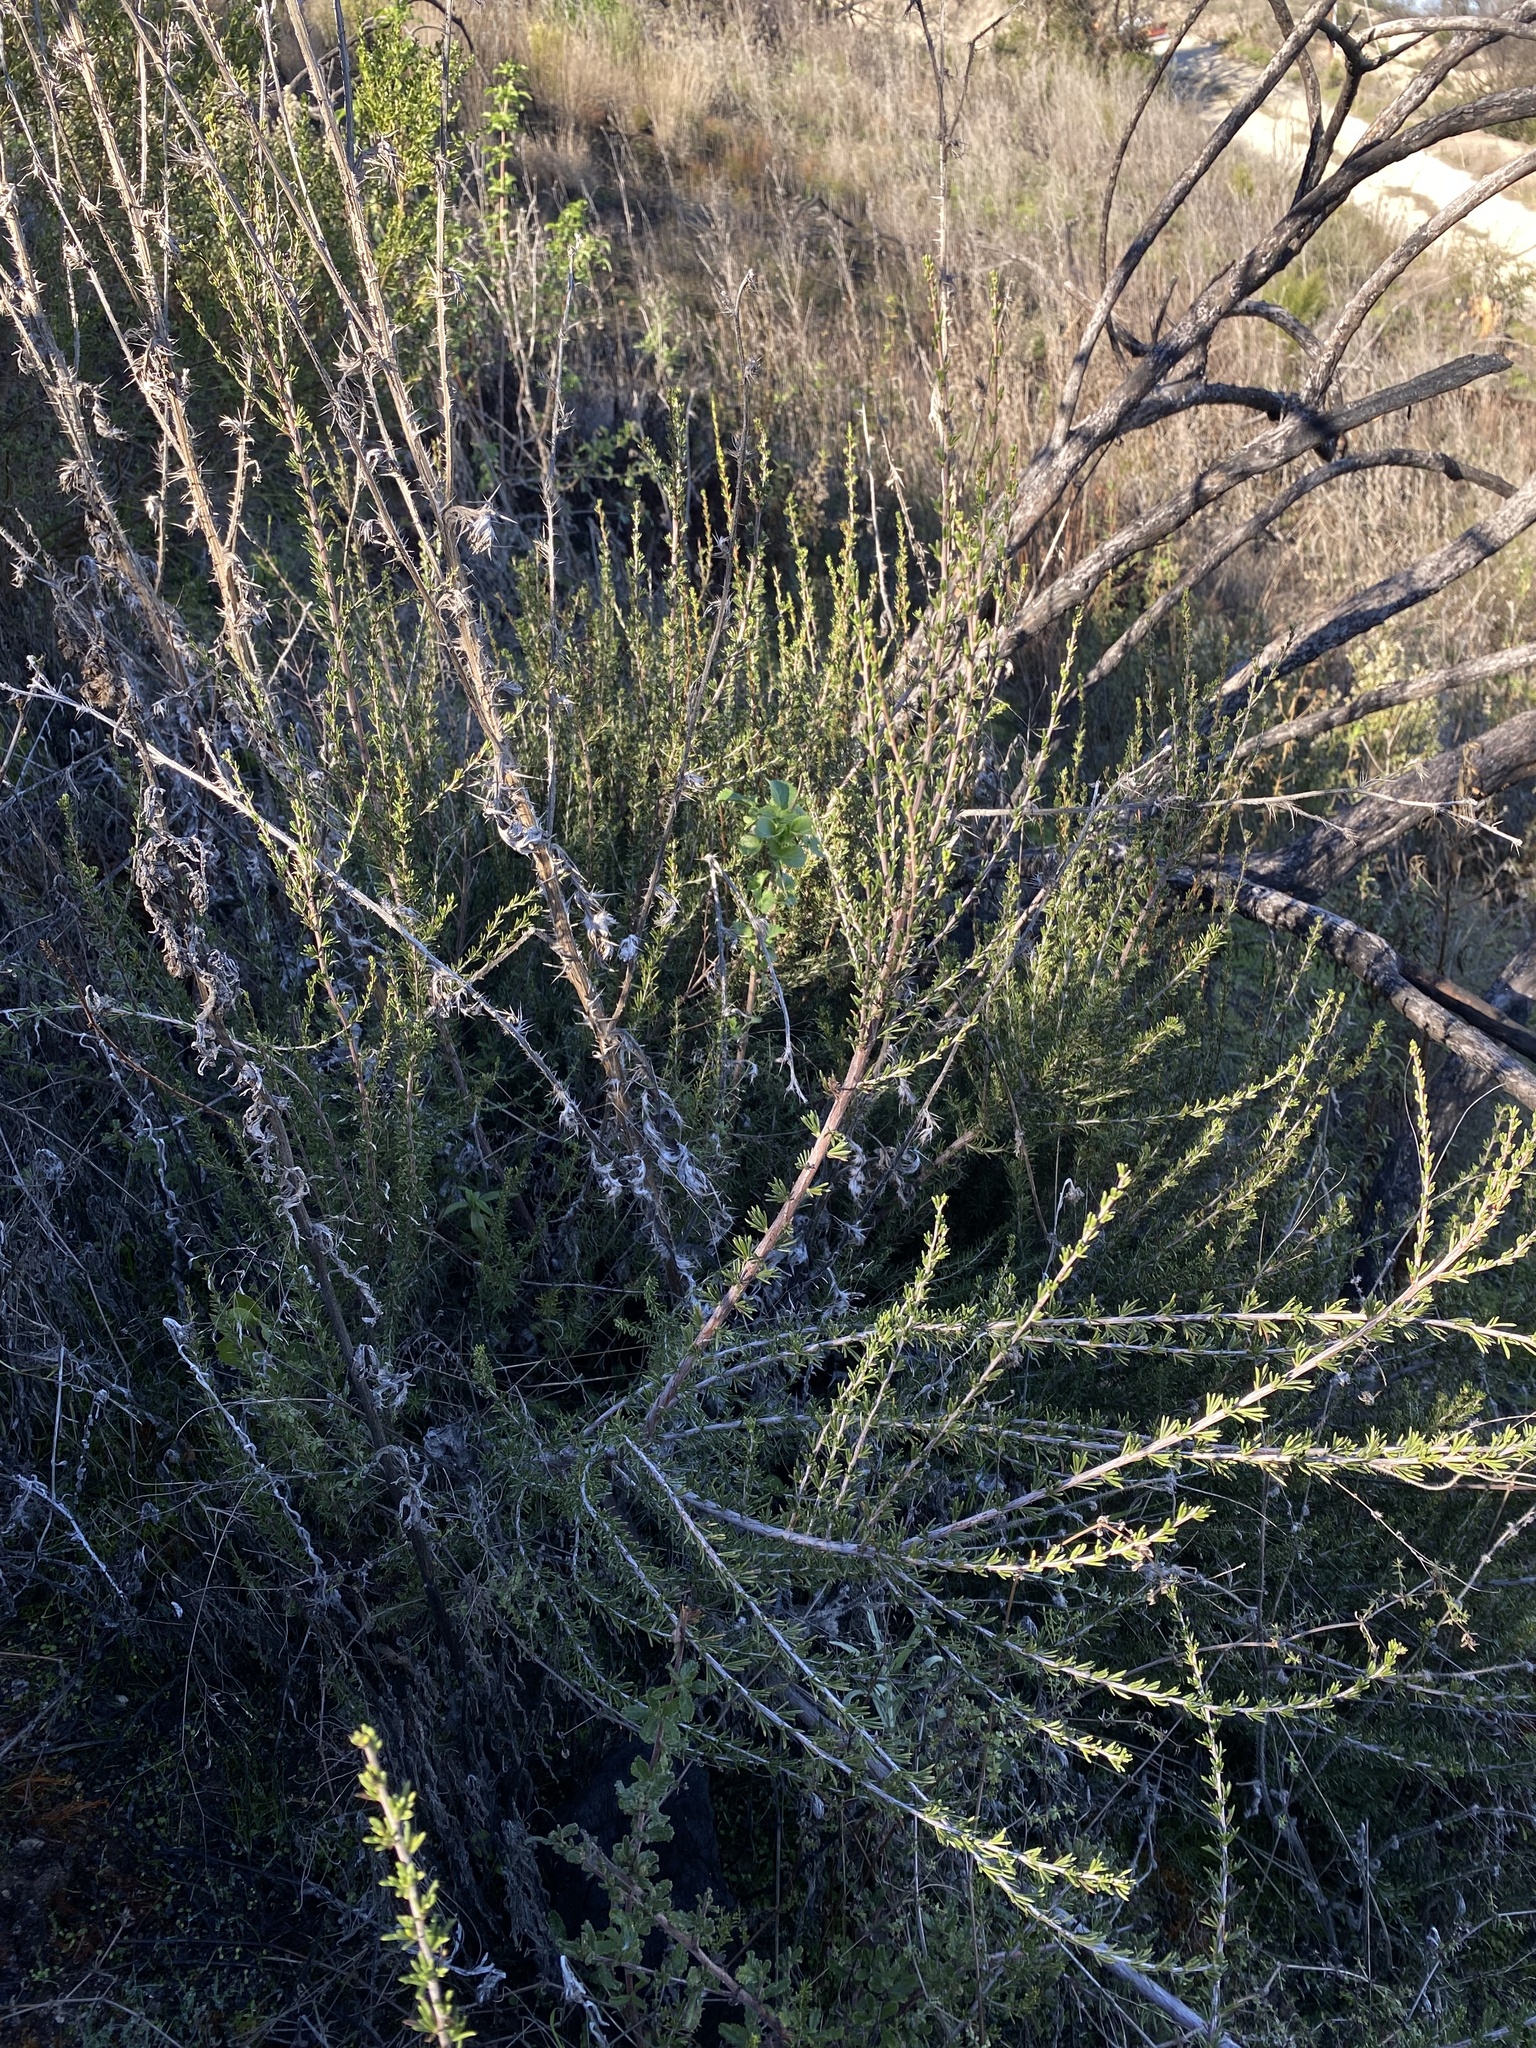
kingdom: Plantae
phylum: Tracheophyta
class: Magnoliopsida
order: Rosales
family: Rosaceae
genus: Adenostoma
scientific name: Adenostoma fasciculatum
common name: Chamise
